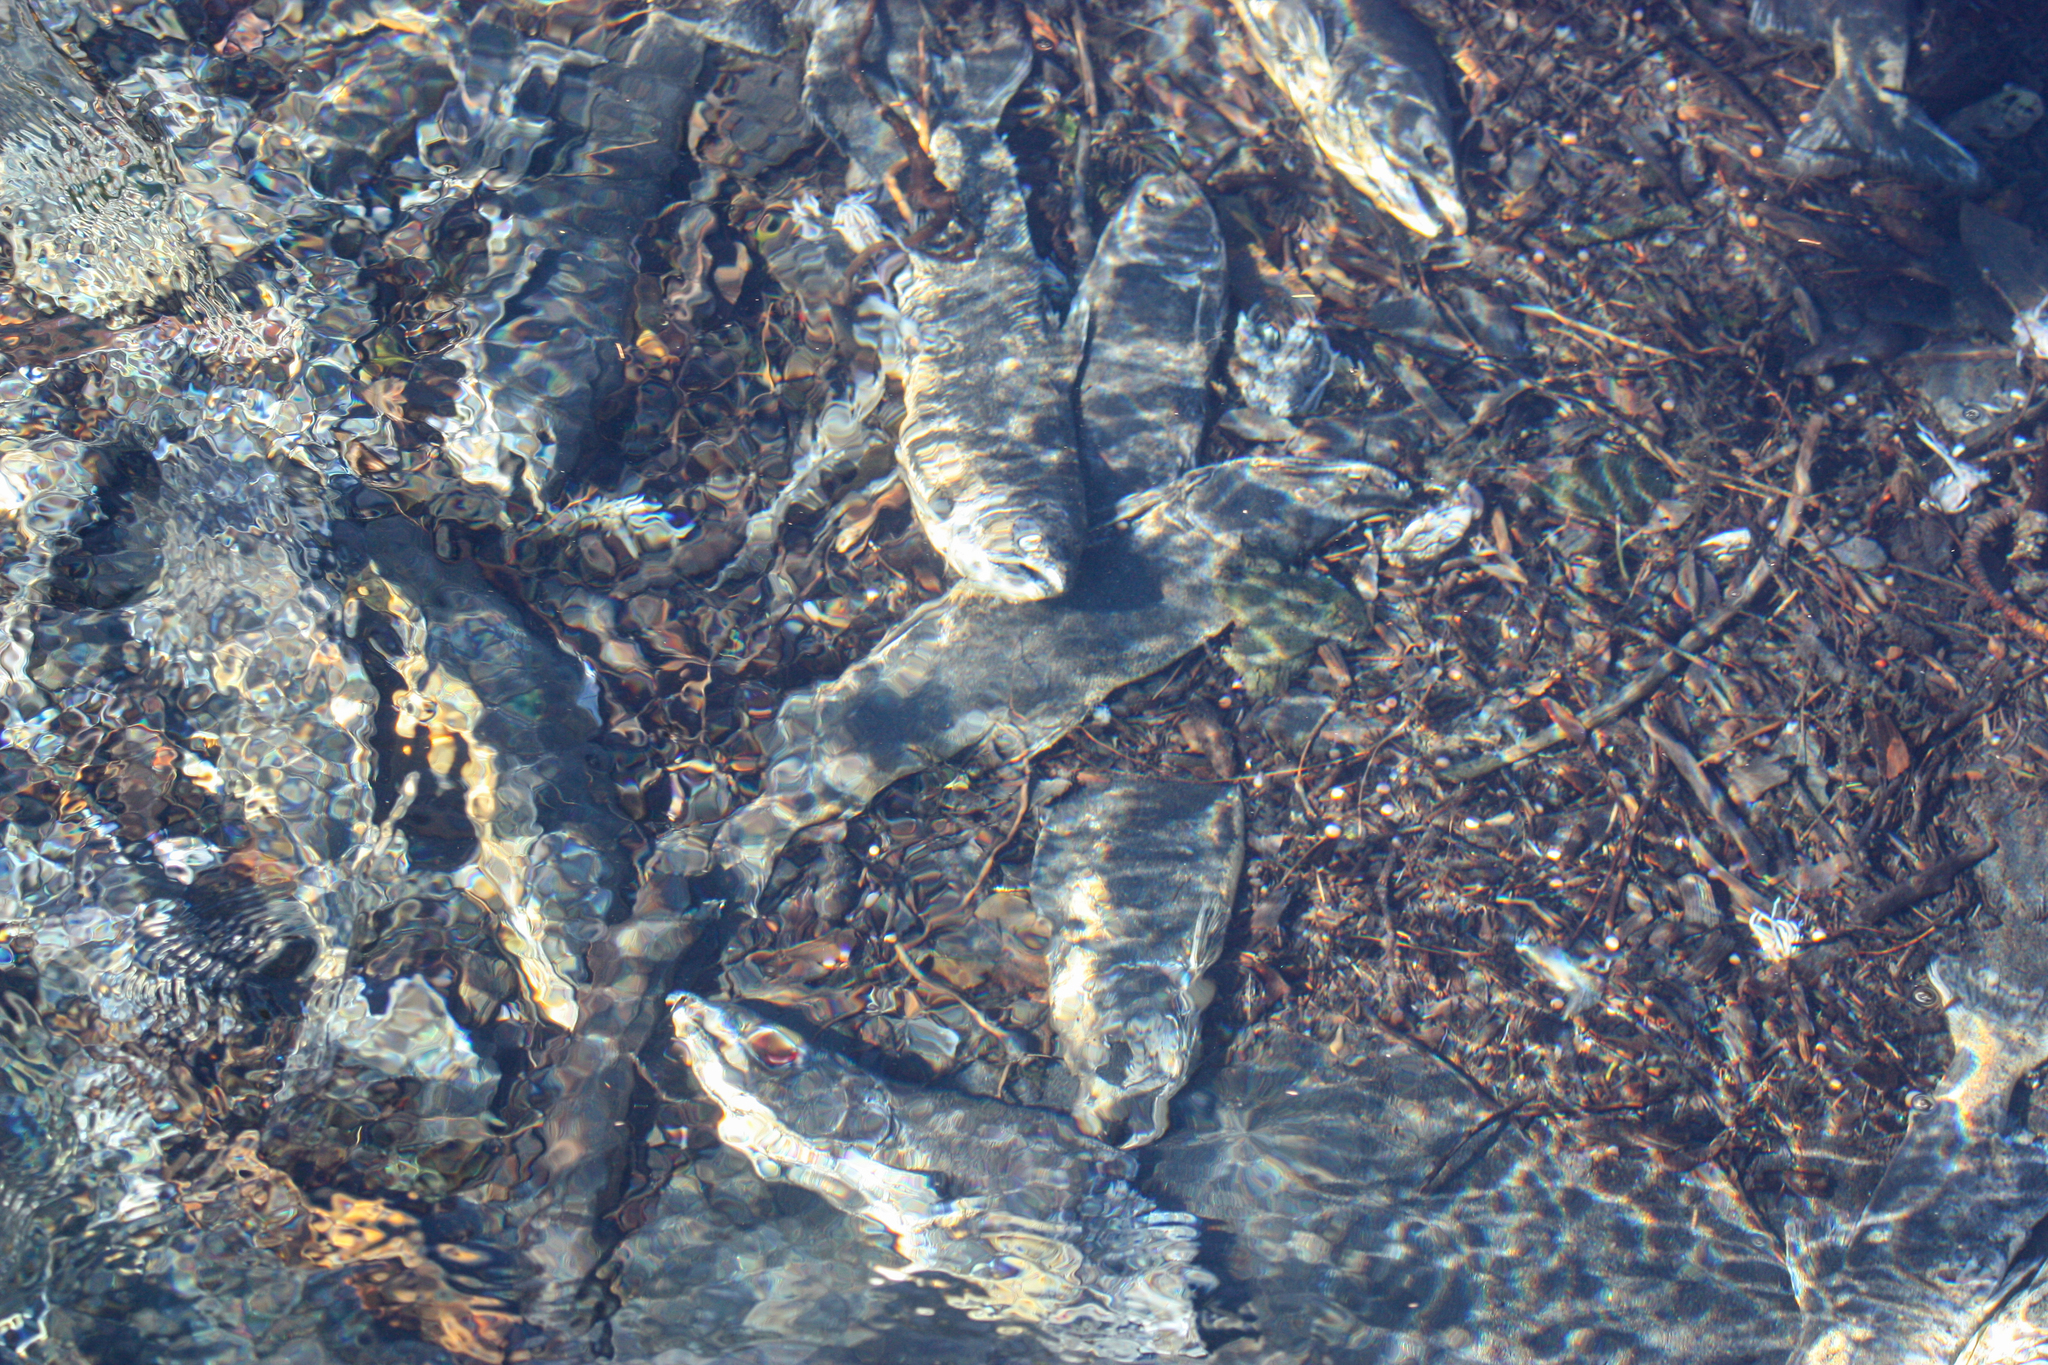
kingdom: Animalia
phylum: Chordata
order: Salmoniformes
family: Salmonidae
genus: Oncorhynchus
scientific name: Oncorhynchus gorbuscha
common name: Humpback salmon
